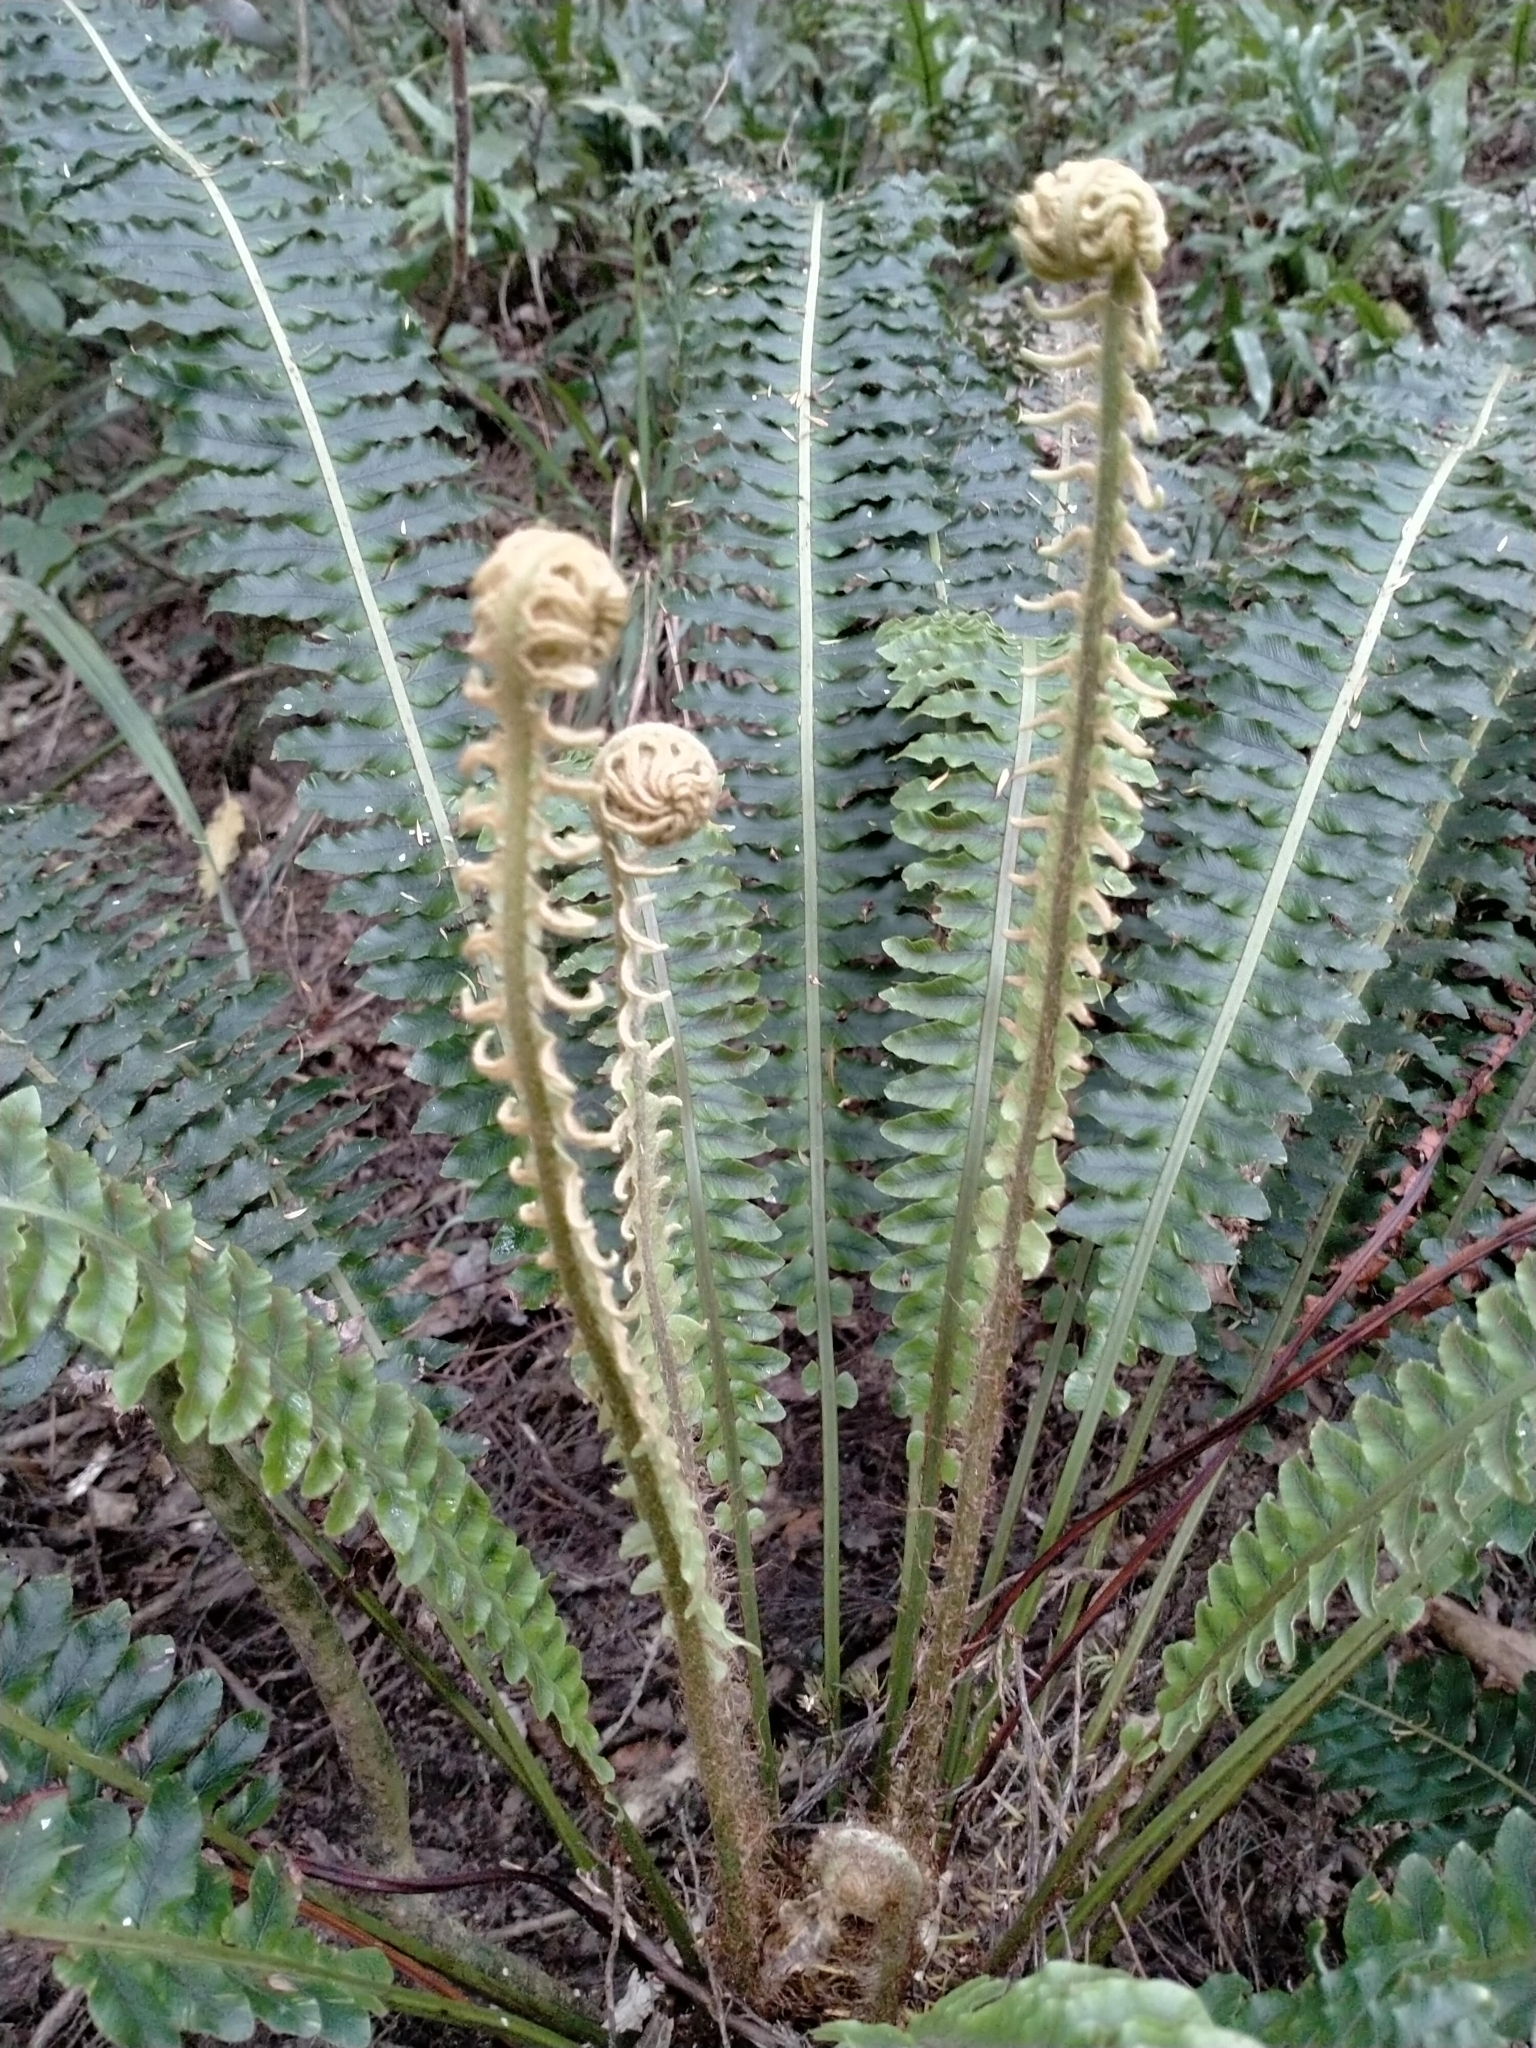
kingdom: Plantae
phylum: Tracheophyta
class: Polypodiopsida
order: Polypodiales
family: Blechnaceae
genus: Lomaria
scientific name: Lomaria discolor
